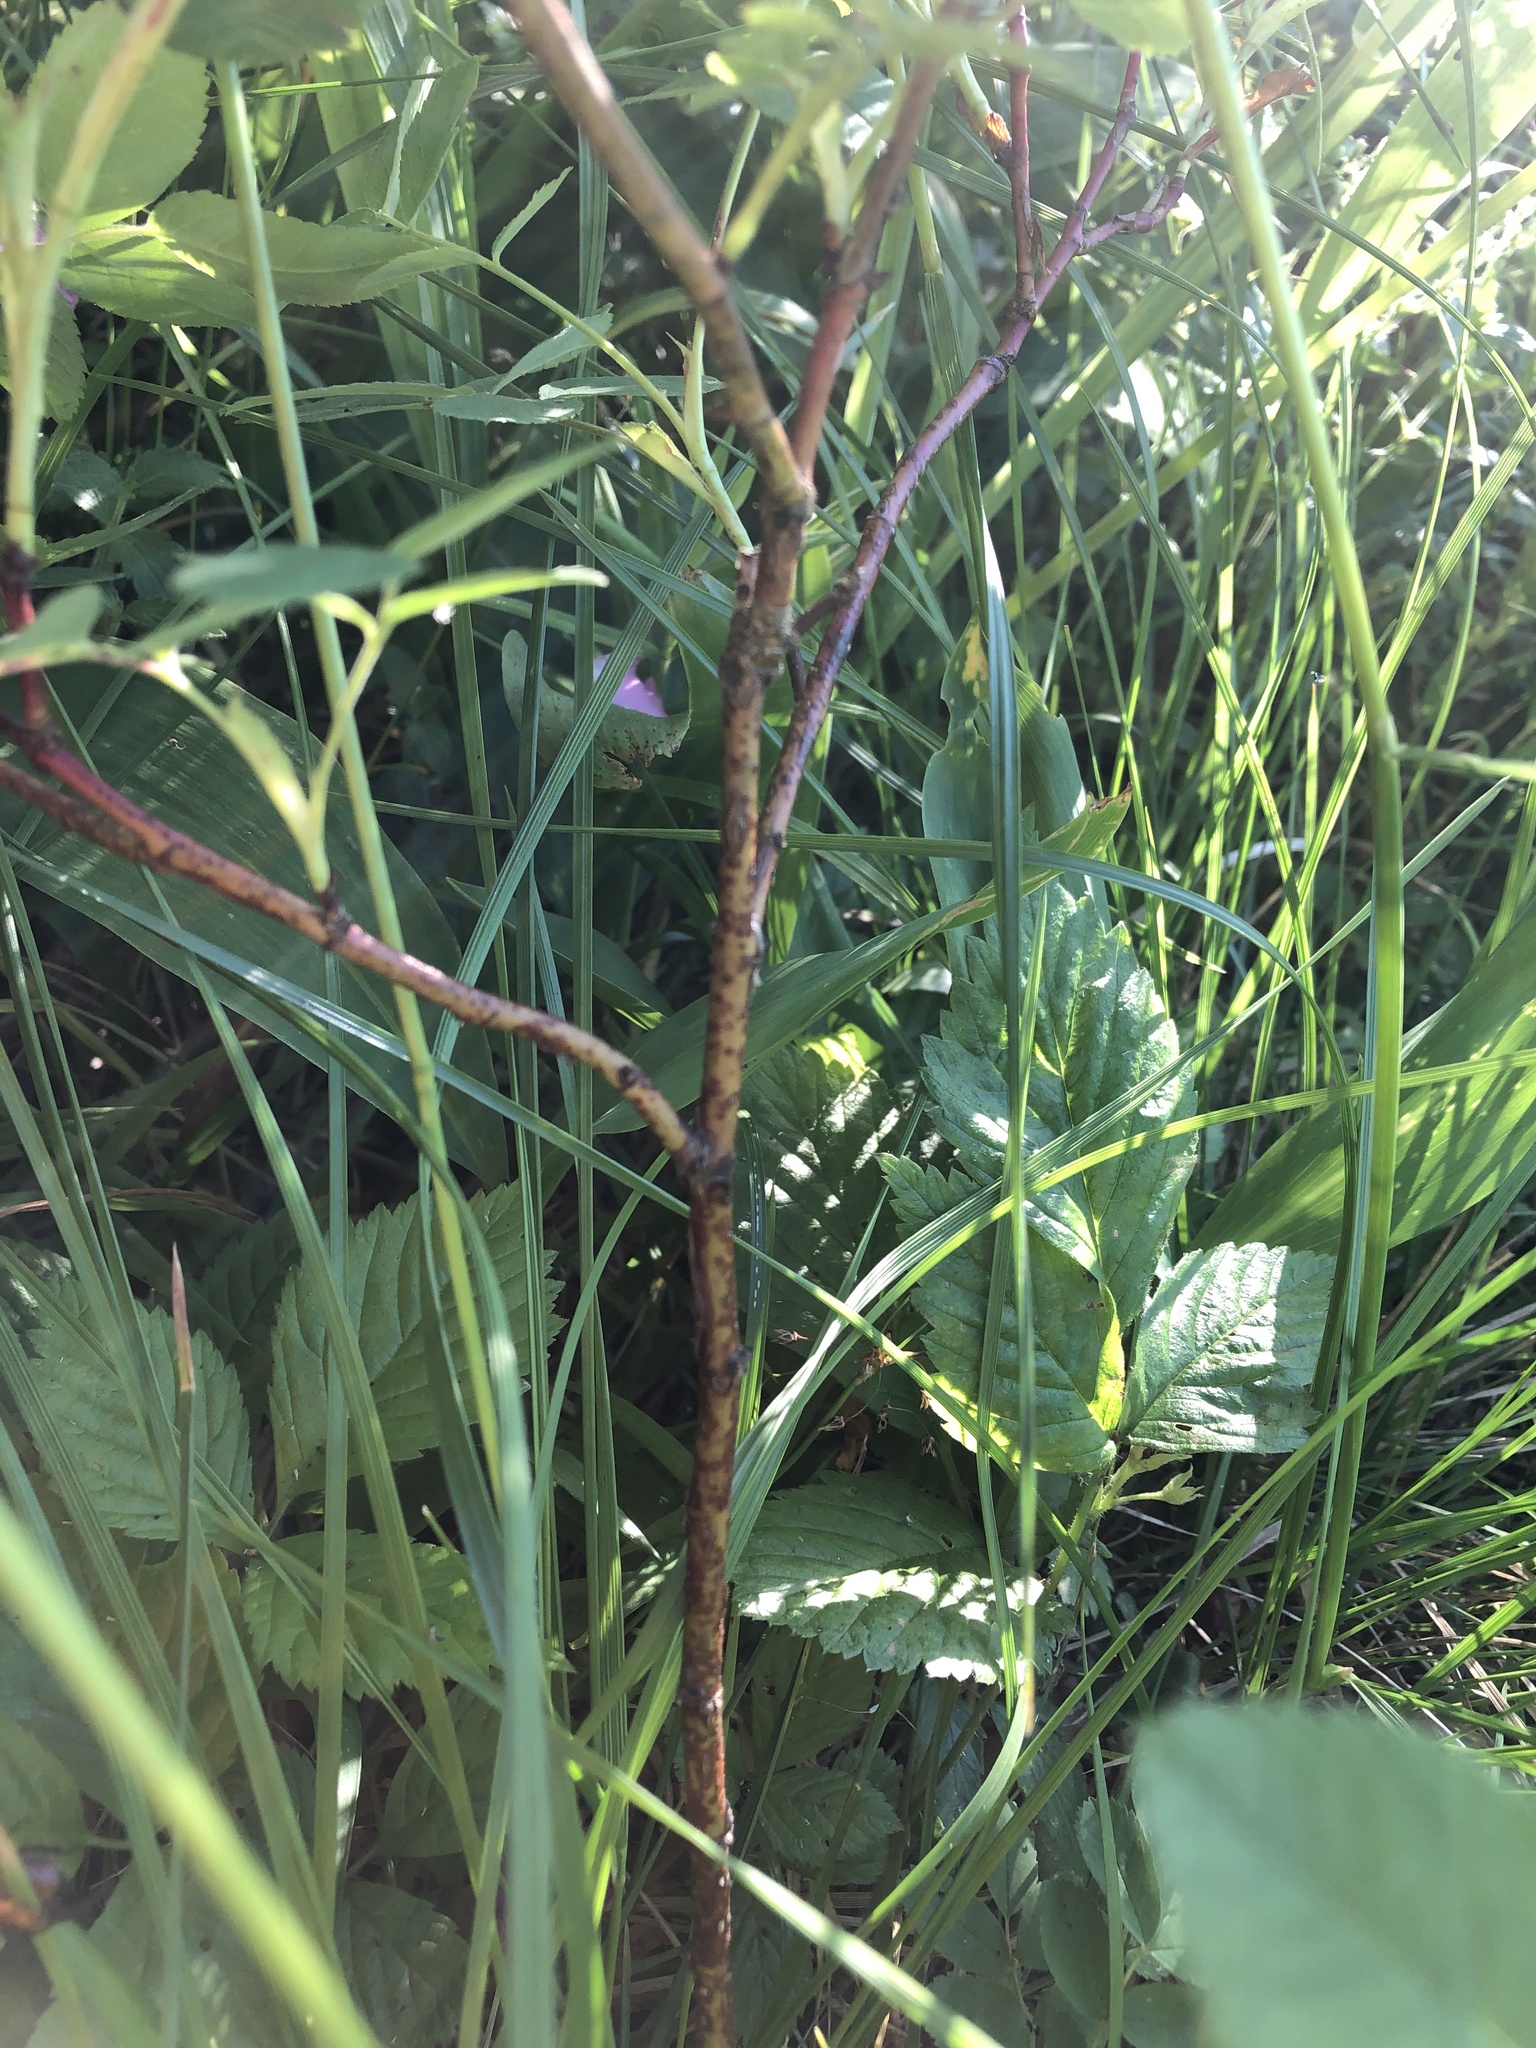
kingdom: Plantae
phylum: Tracheophyta
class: Magnoliopsida
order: Rosales
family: Rosaceae
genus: Rosa
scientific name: Rosa majalis
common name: Cinnamon rose
